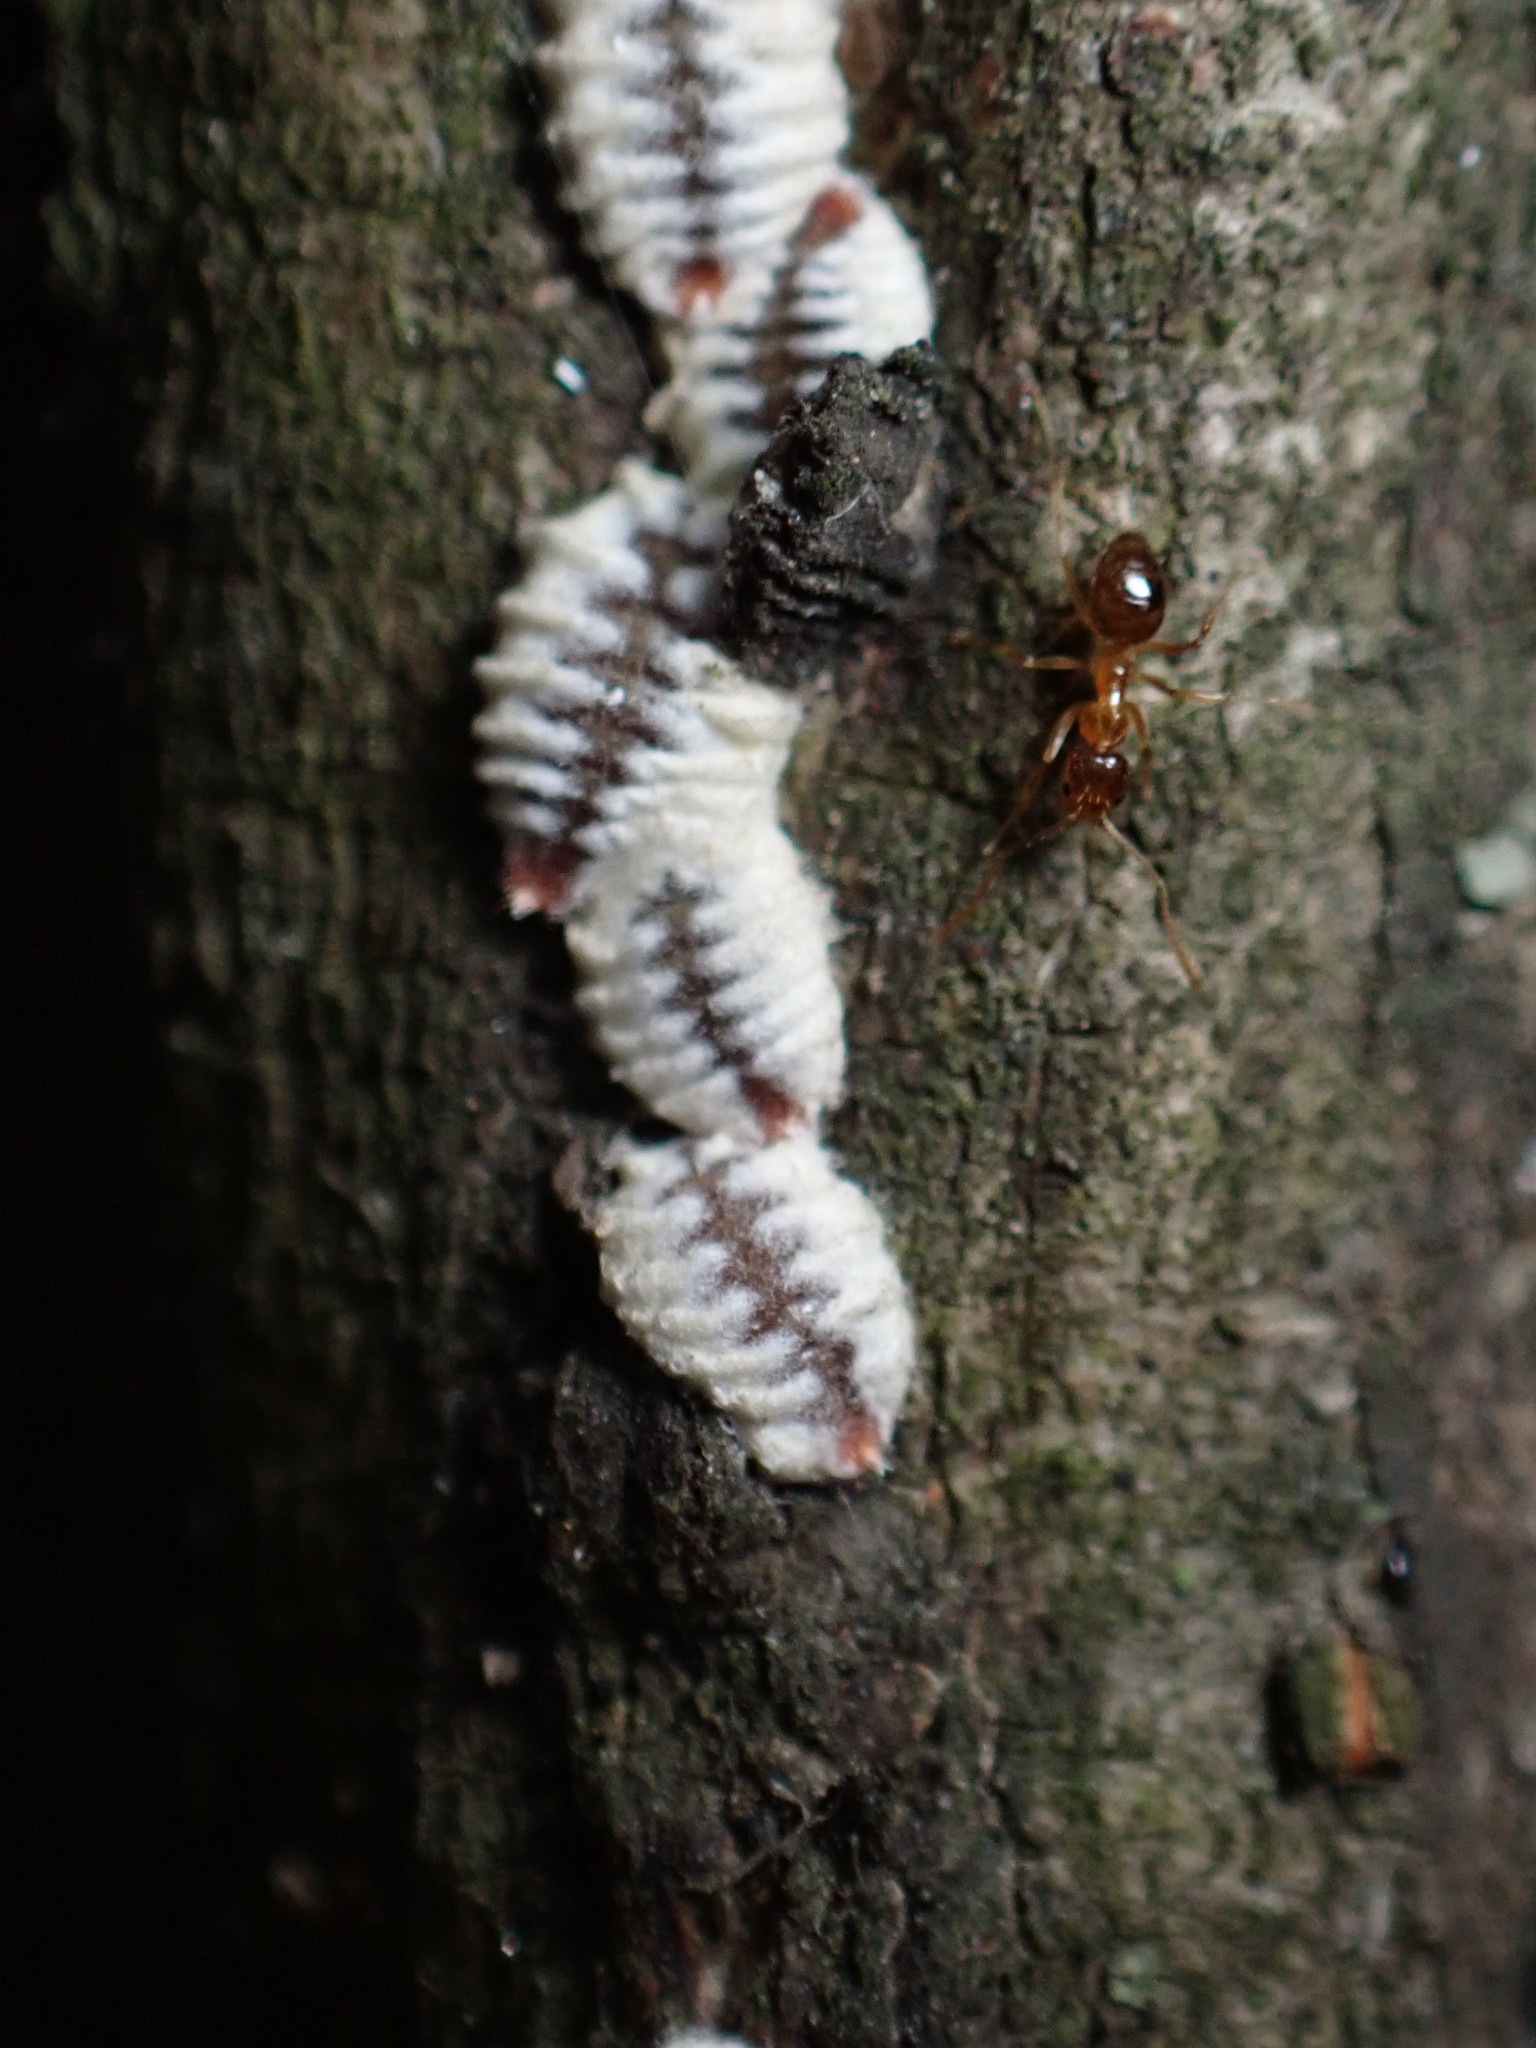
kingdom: Animalia
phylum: Arthropoda
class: Insecta
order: Hymenoptera
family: Formicidae
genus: Paratrechina
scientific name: Paratrechina flavipes
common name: Eastern asian formicine ant
